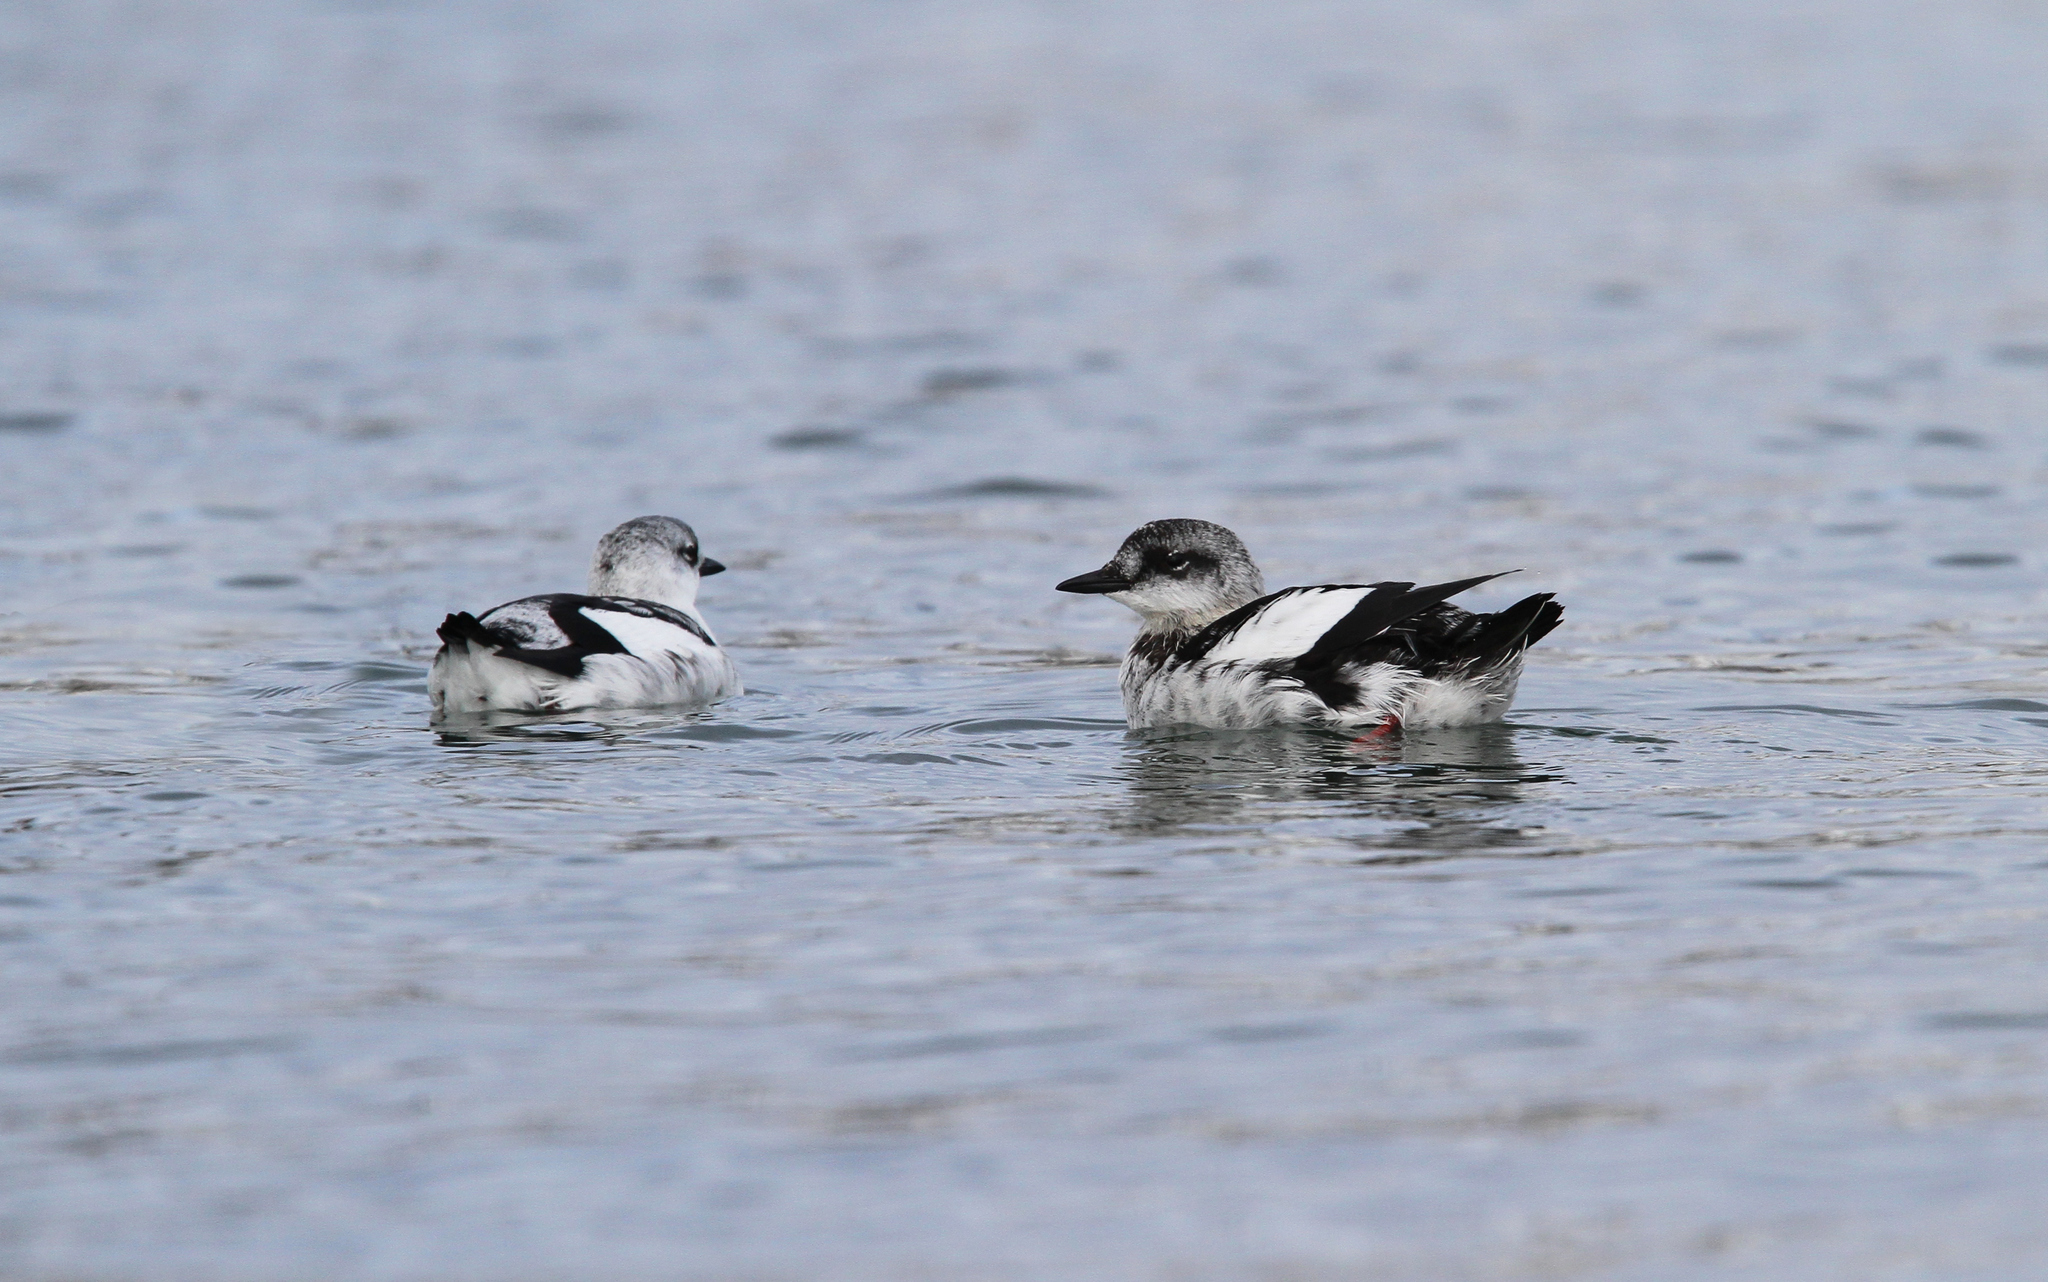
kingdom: Animalia
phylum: Chordata
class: Aves
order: Charadriiformes
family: Alcidae
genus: Cepphus
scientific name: Cepphus grylle
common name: Black guillemot
